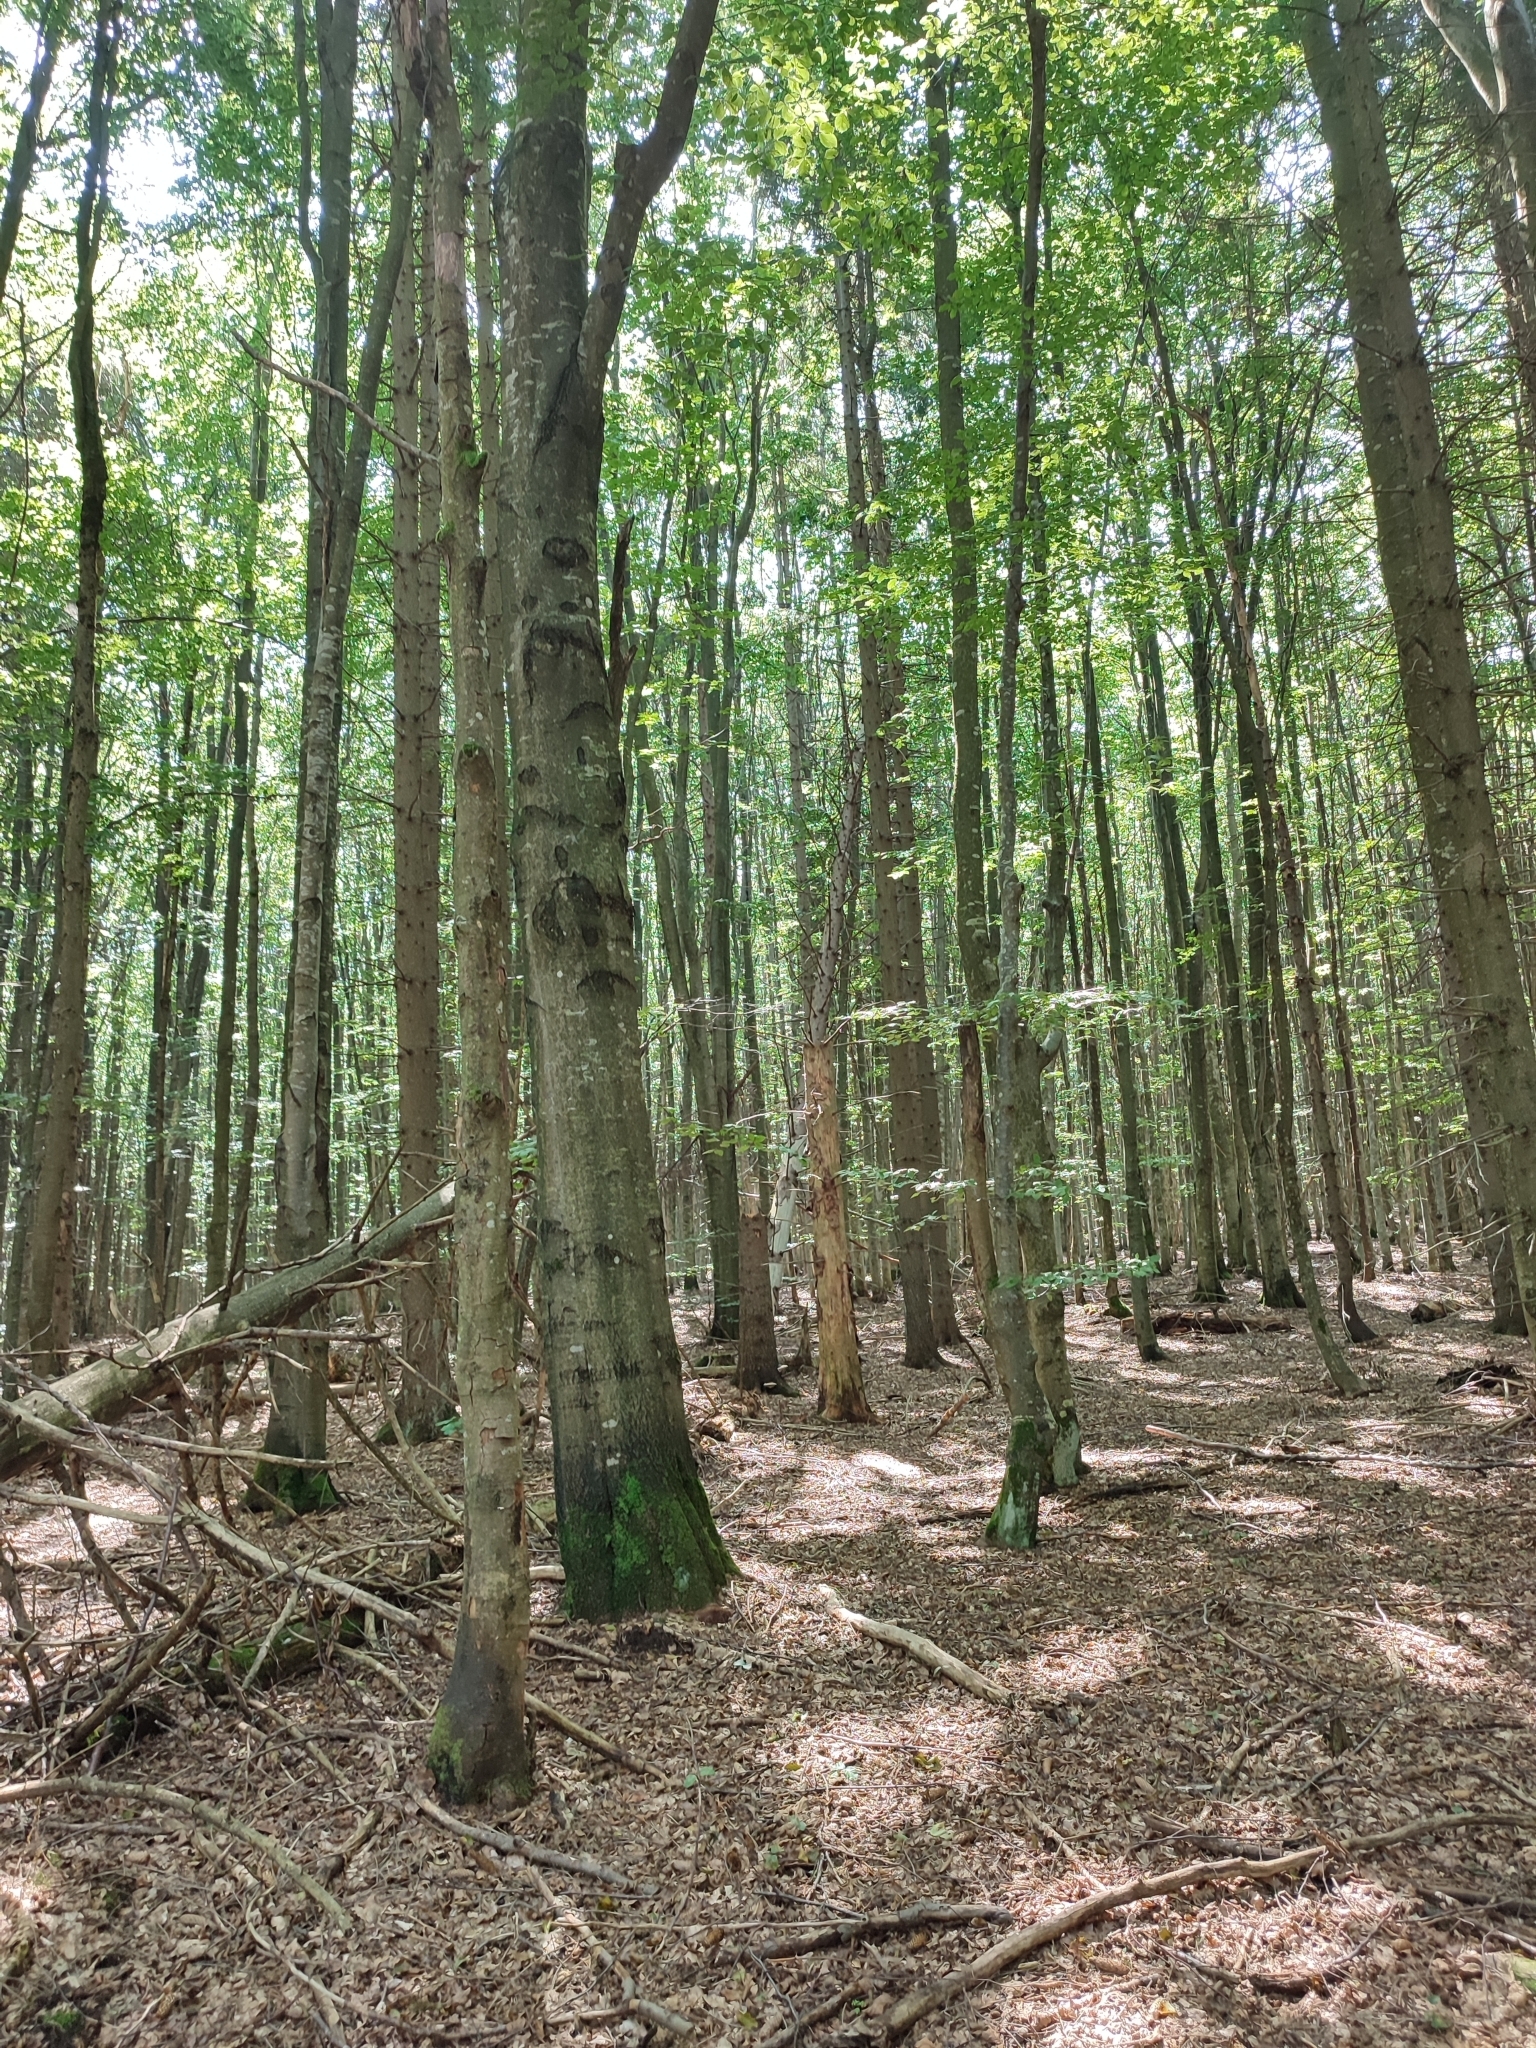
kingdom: Plantae
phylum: Tracheophyta
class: Magnoliopsida
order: Fagales
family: Fagaceae
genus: Fagus
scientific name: Fagus sylvatica
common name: Beech
